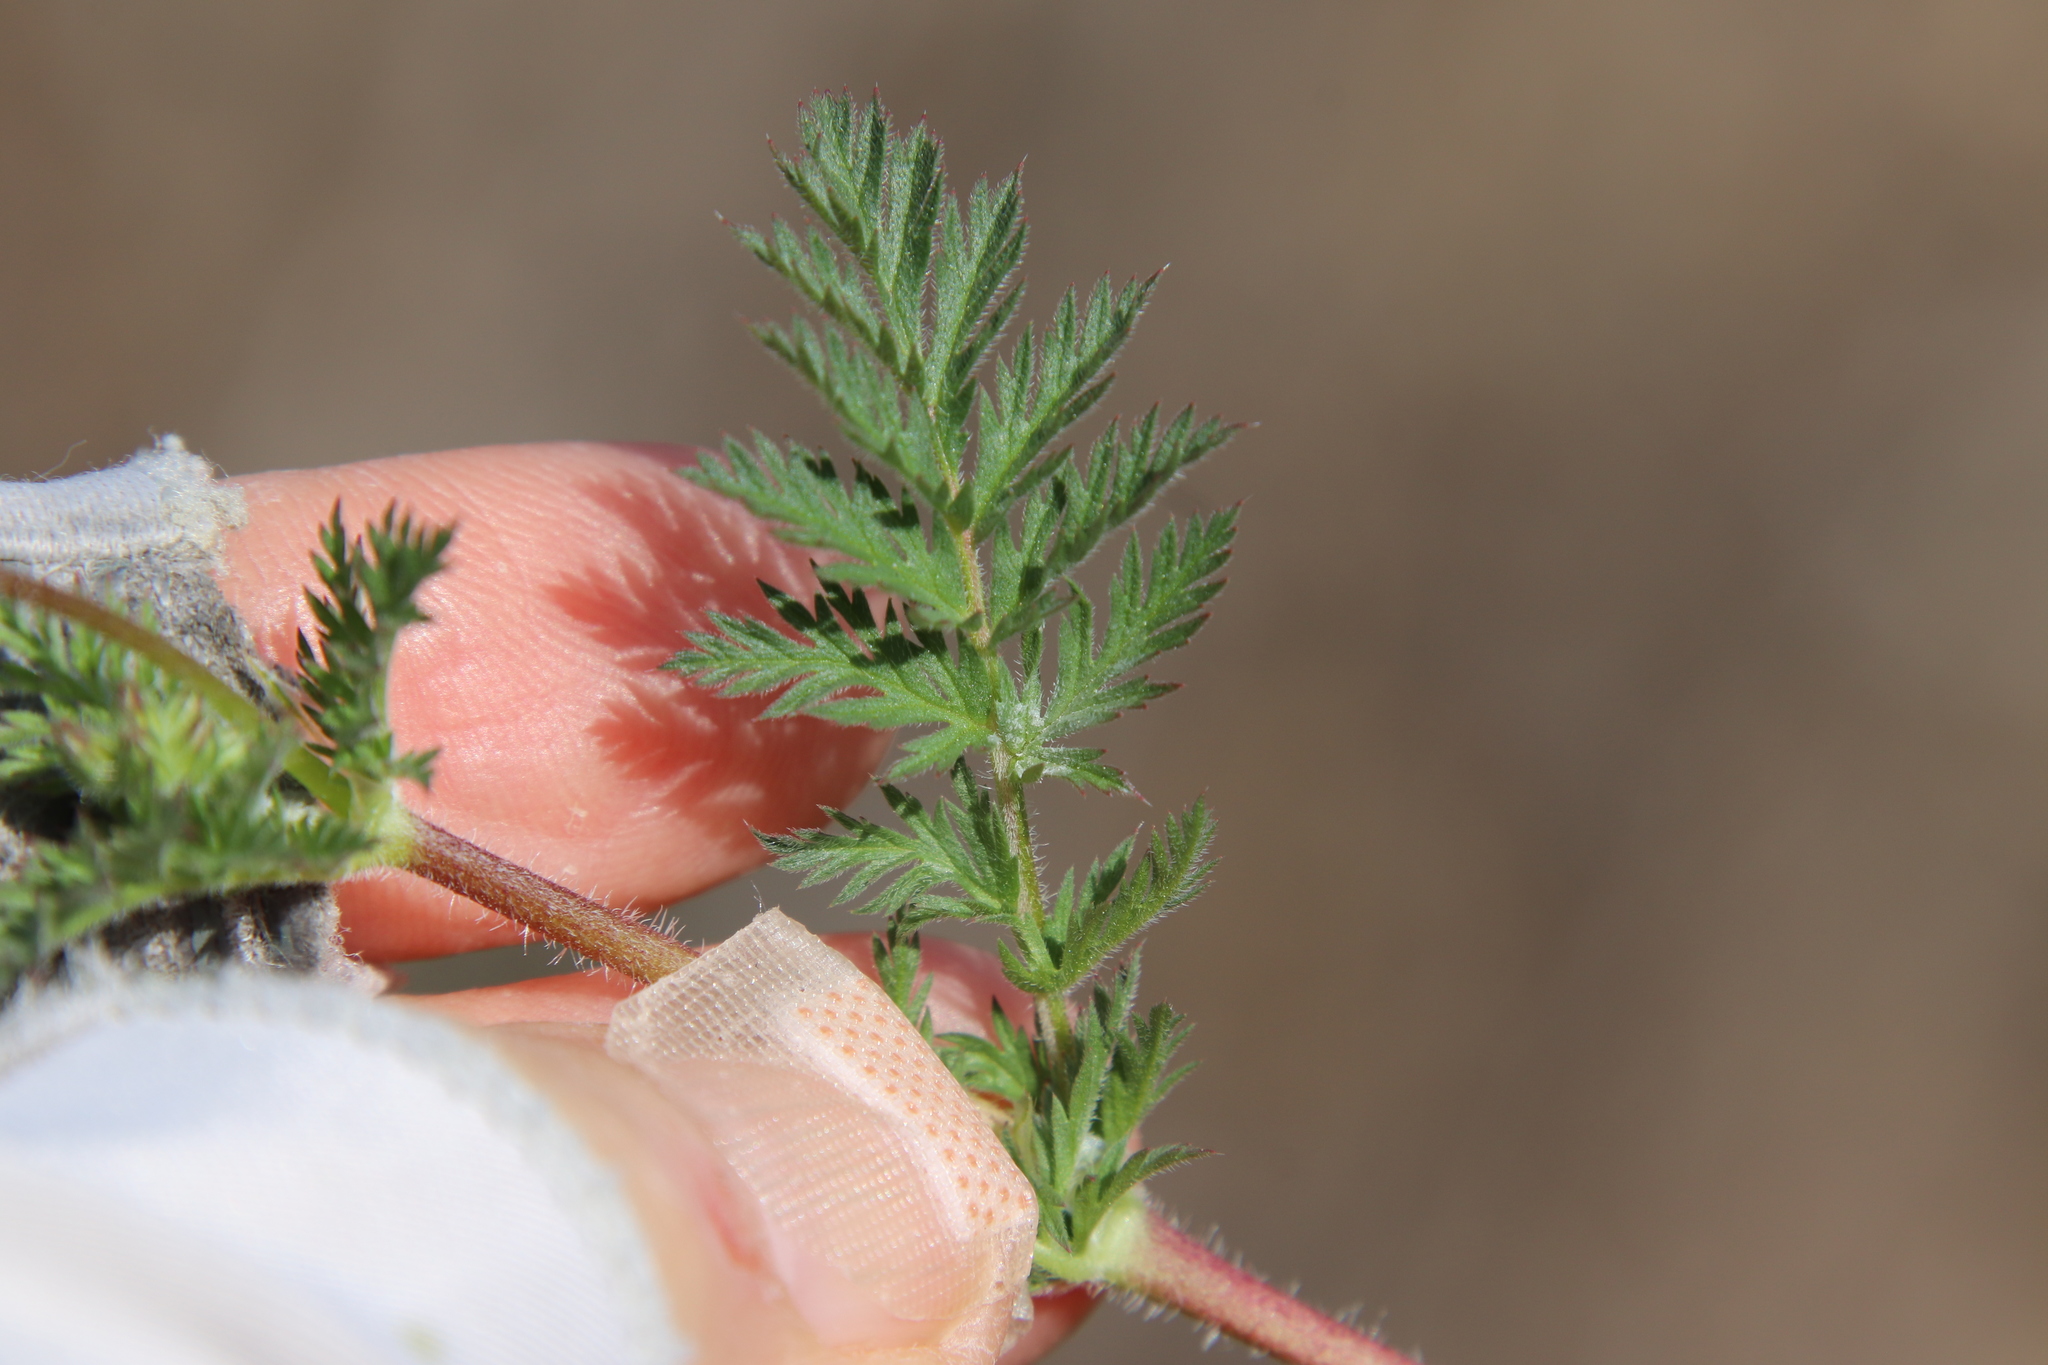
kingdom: Plantae
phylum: Tracheophyta
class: Magnoliopsida
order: Geraniales
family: Geraniaceae
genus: Erodium
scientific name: Erodium cicutarium
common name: Common stork's-bill
